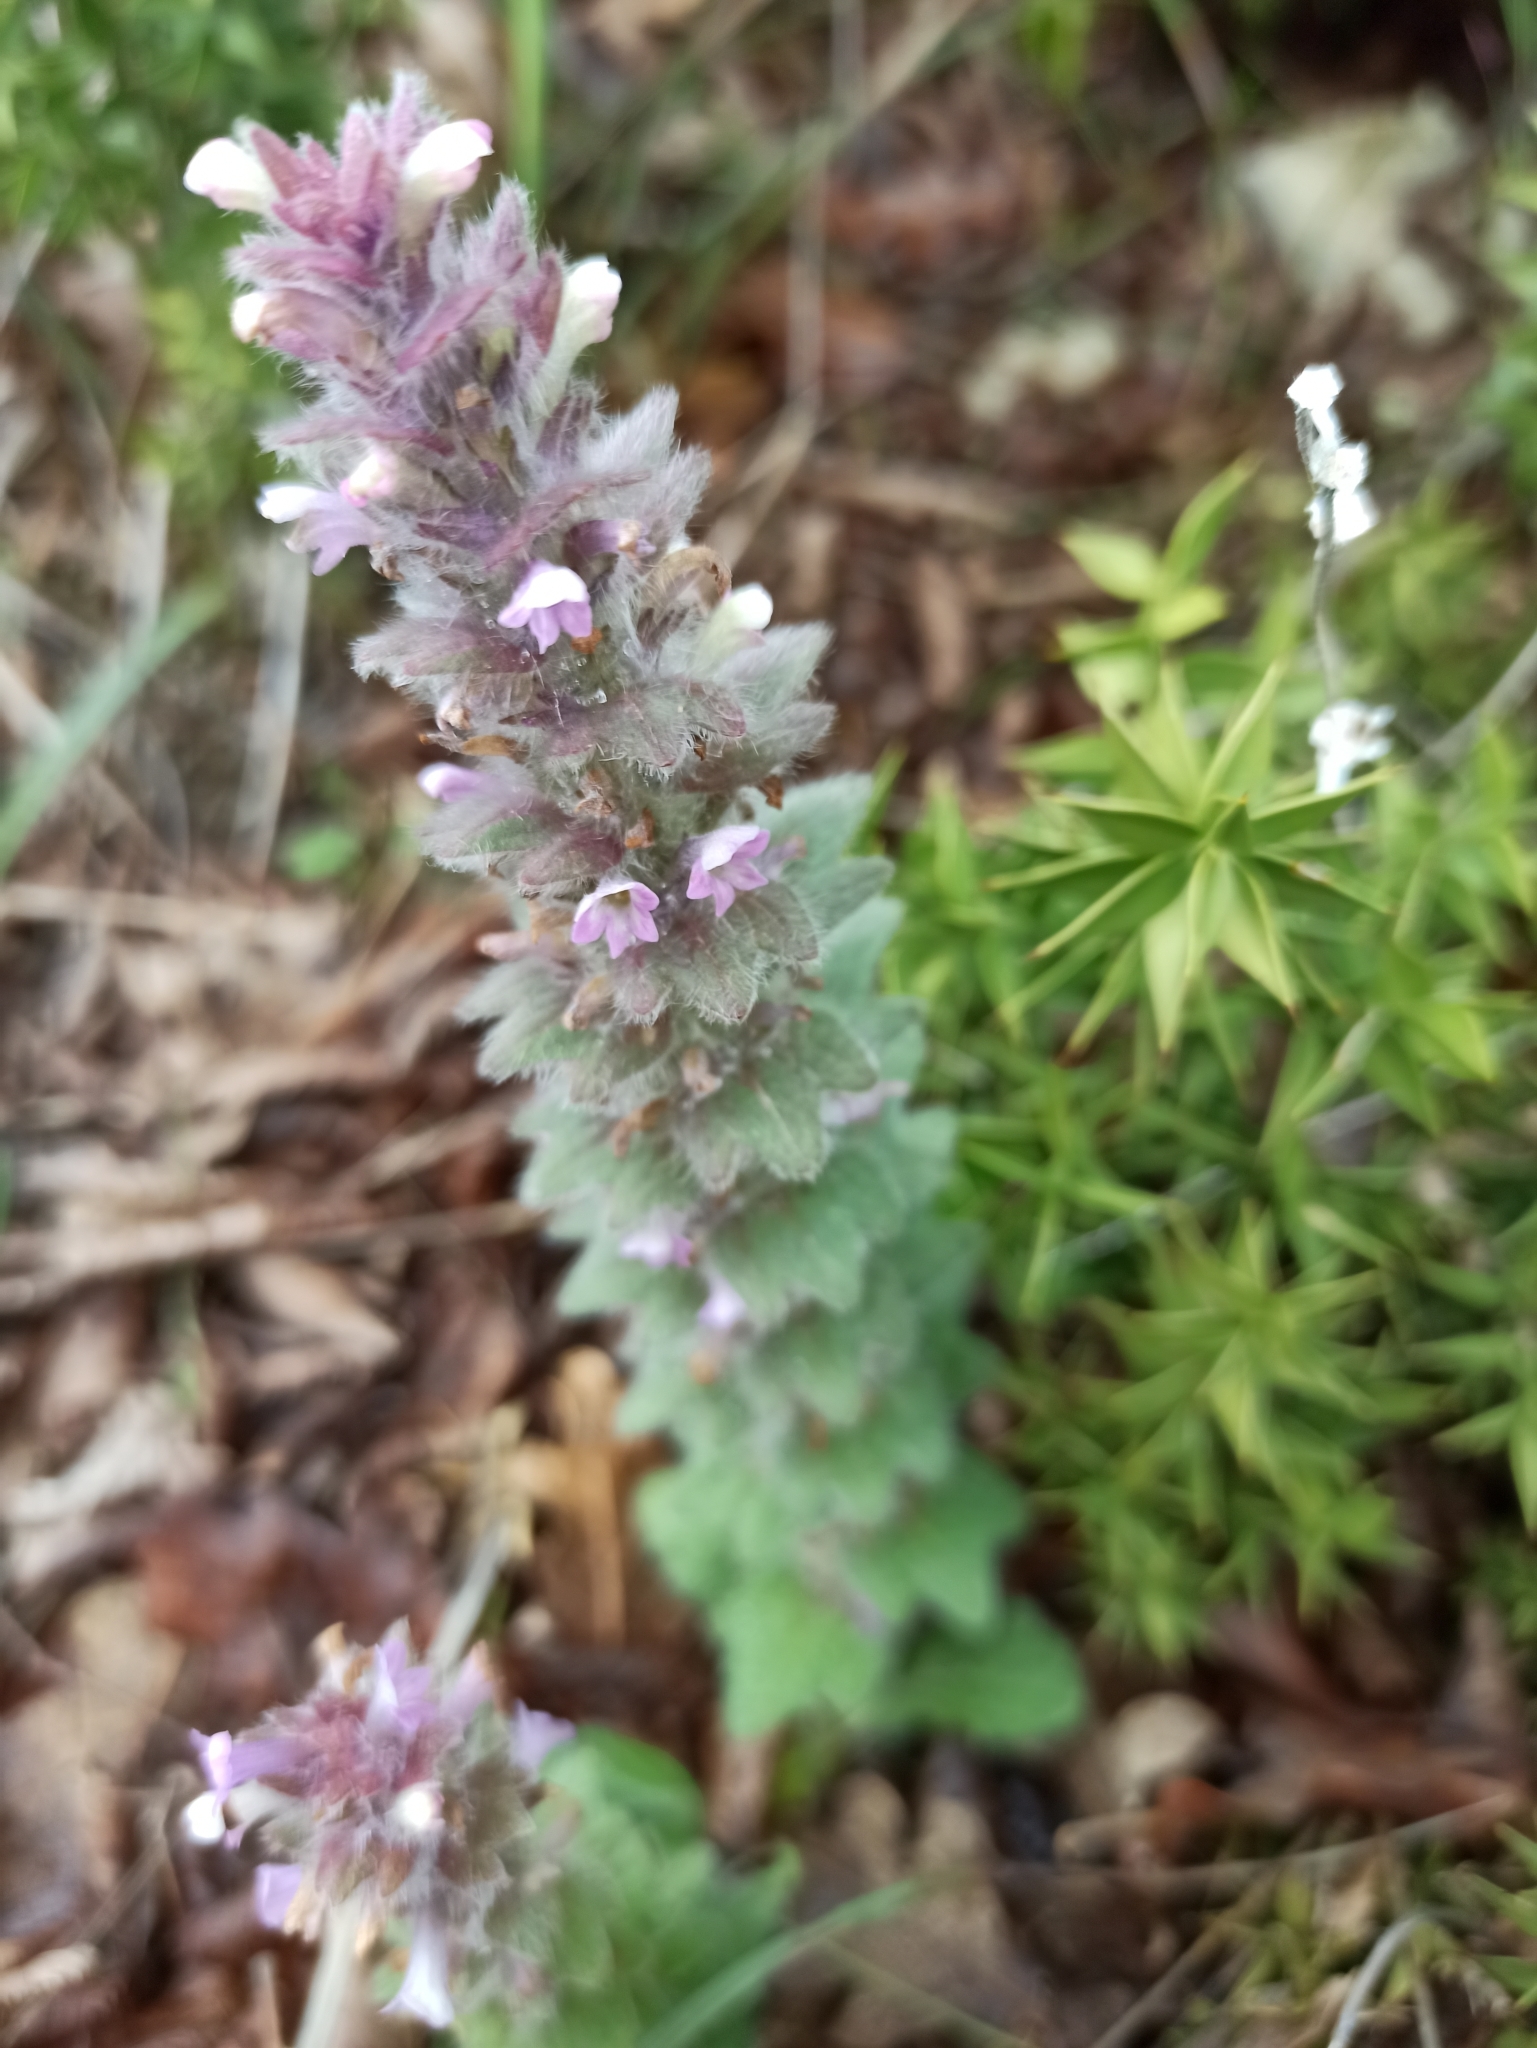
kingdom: Plantae
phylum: Tracheophyta
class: Magnoliopsida
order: Lamiales
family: Lamiaceae
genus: Ajuga
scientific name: Ajuga orientalis
